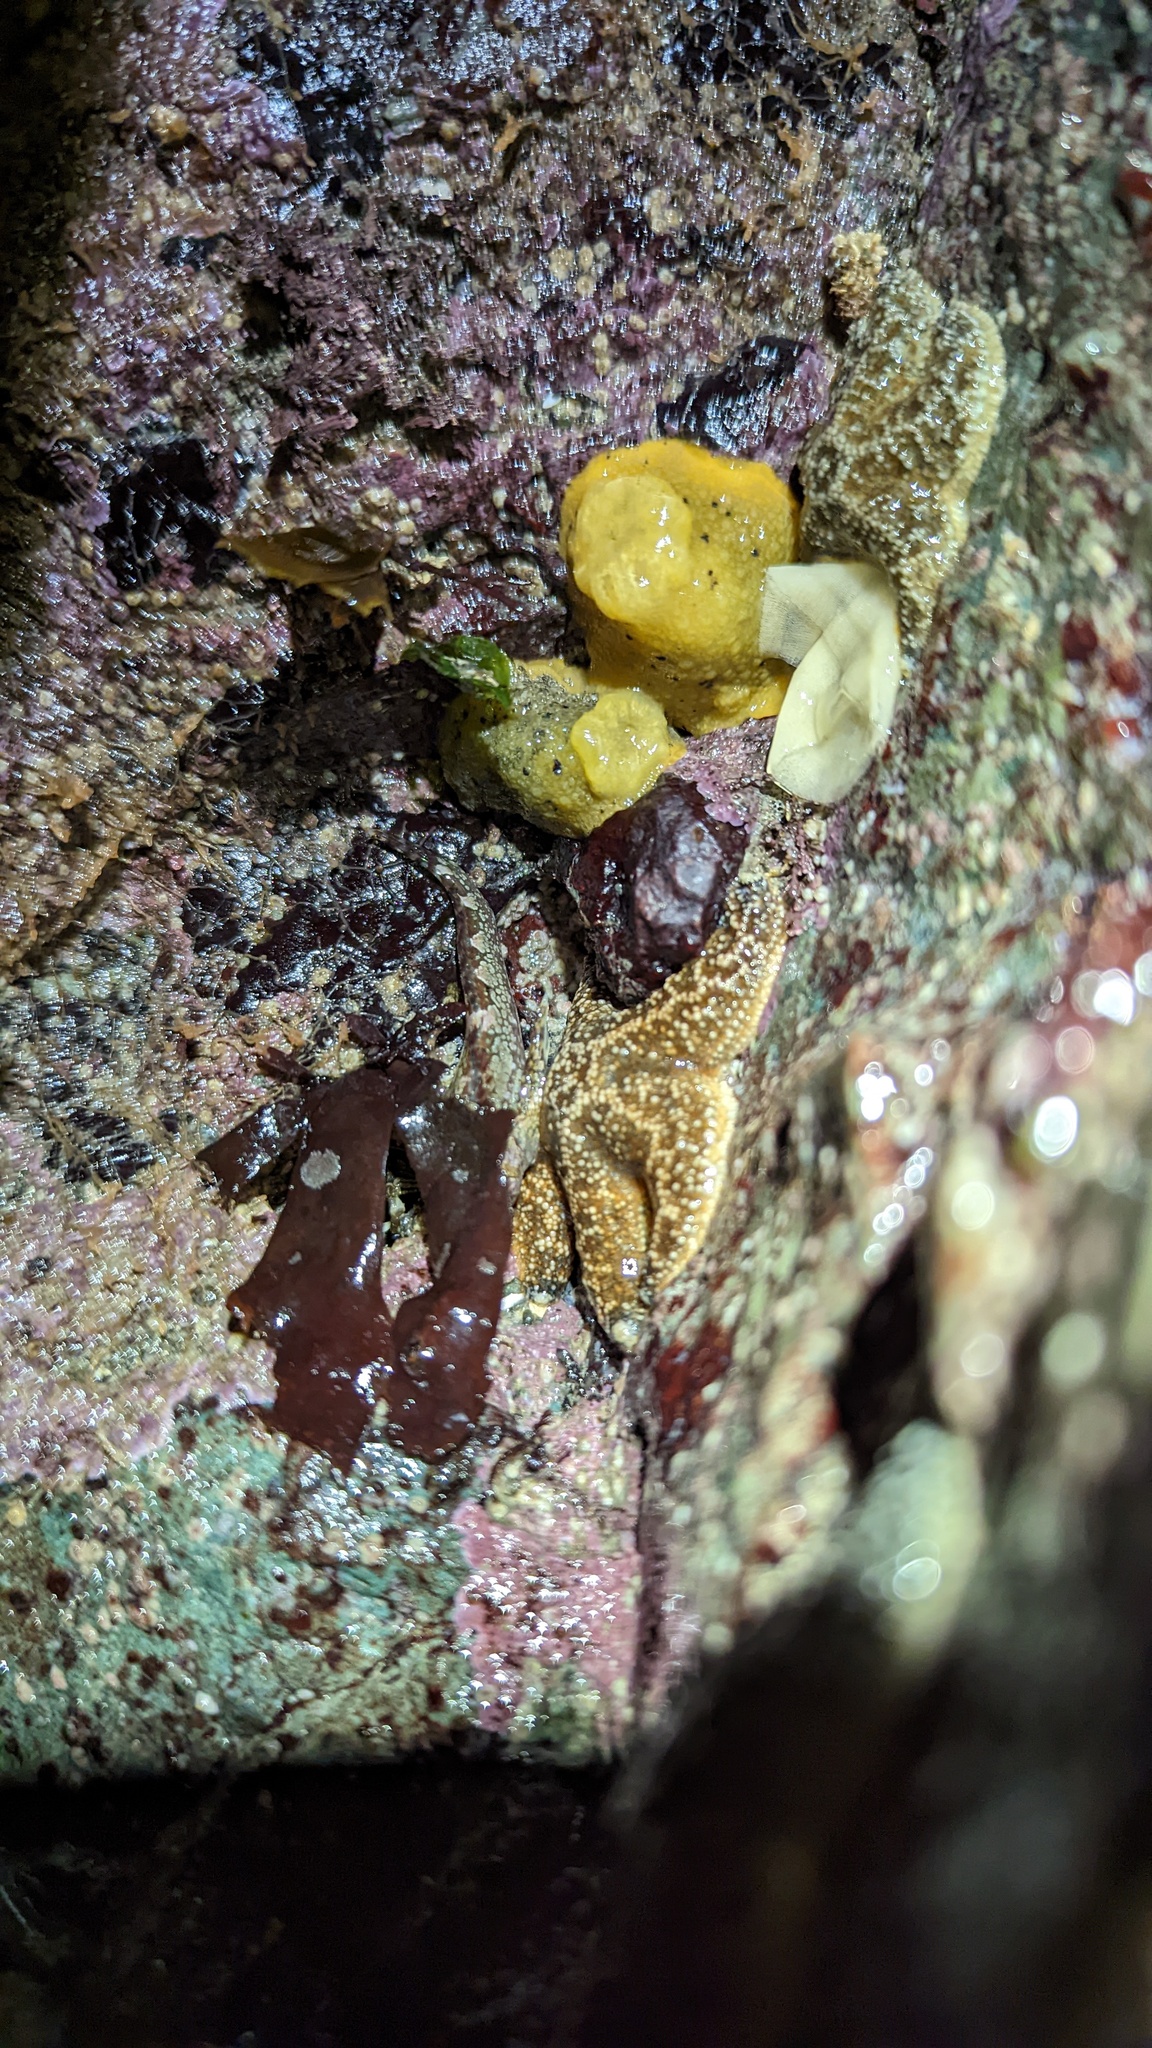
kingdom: Animalia
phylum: Mollusca
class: Gastropoda
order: Nudibranchia
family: Dorididae
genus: Doris
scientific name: Doris montereyensis
